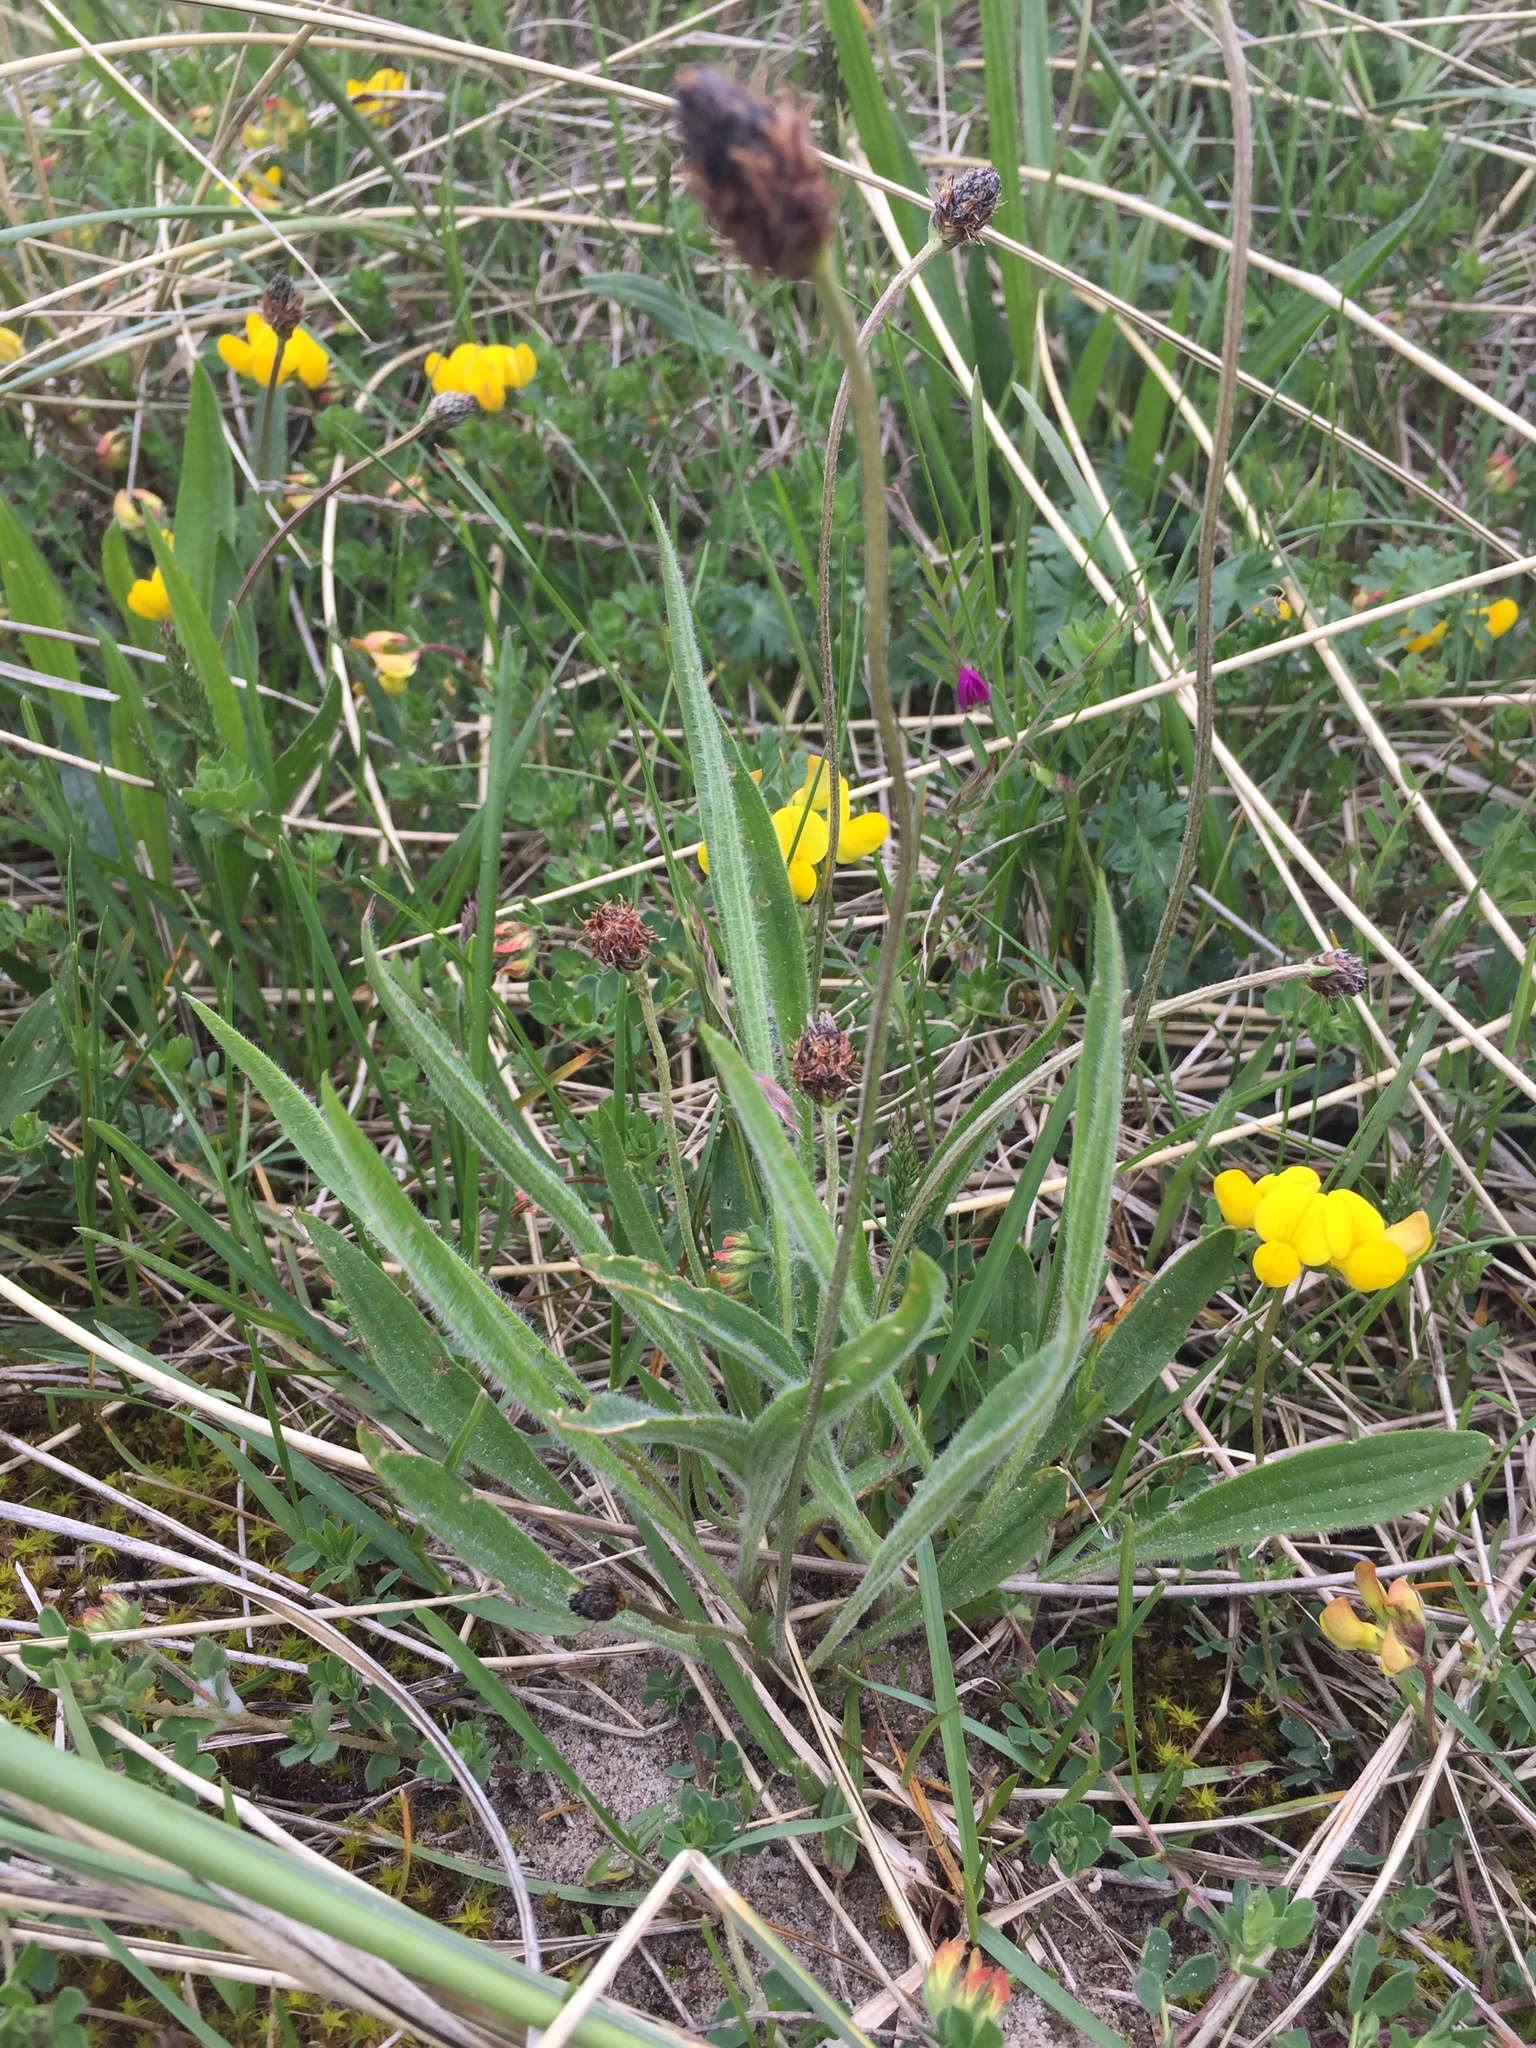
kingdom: Plantae
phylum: Tracheophyta
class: Magnoliopsida
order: Lamiales
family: Plantaginaceae
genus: Plantago
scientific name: Plantago lanceolata
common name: Ribwort plantain
